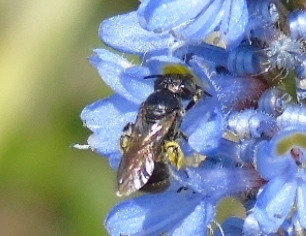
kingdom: Animalia
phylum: Arthropoda
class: Insecta
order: Hymenoptera
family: Apidae
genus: Ceratina
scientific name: Ceratina
